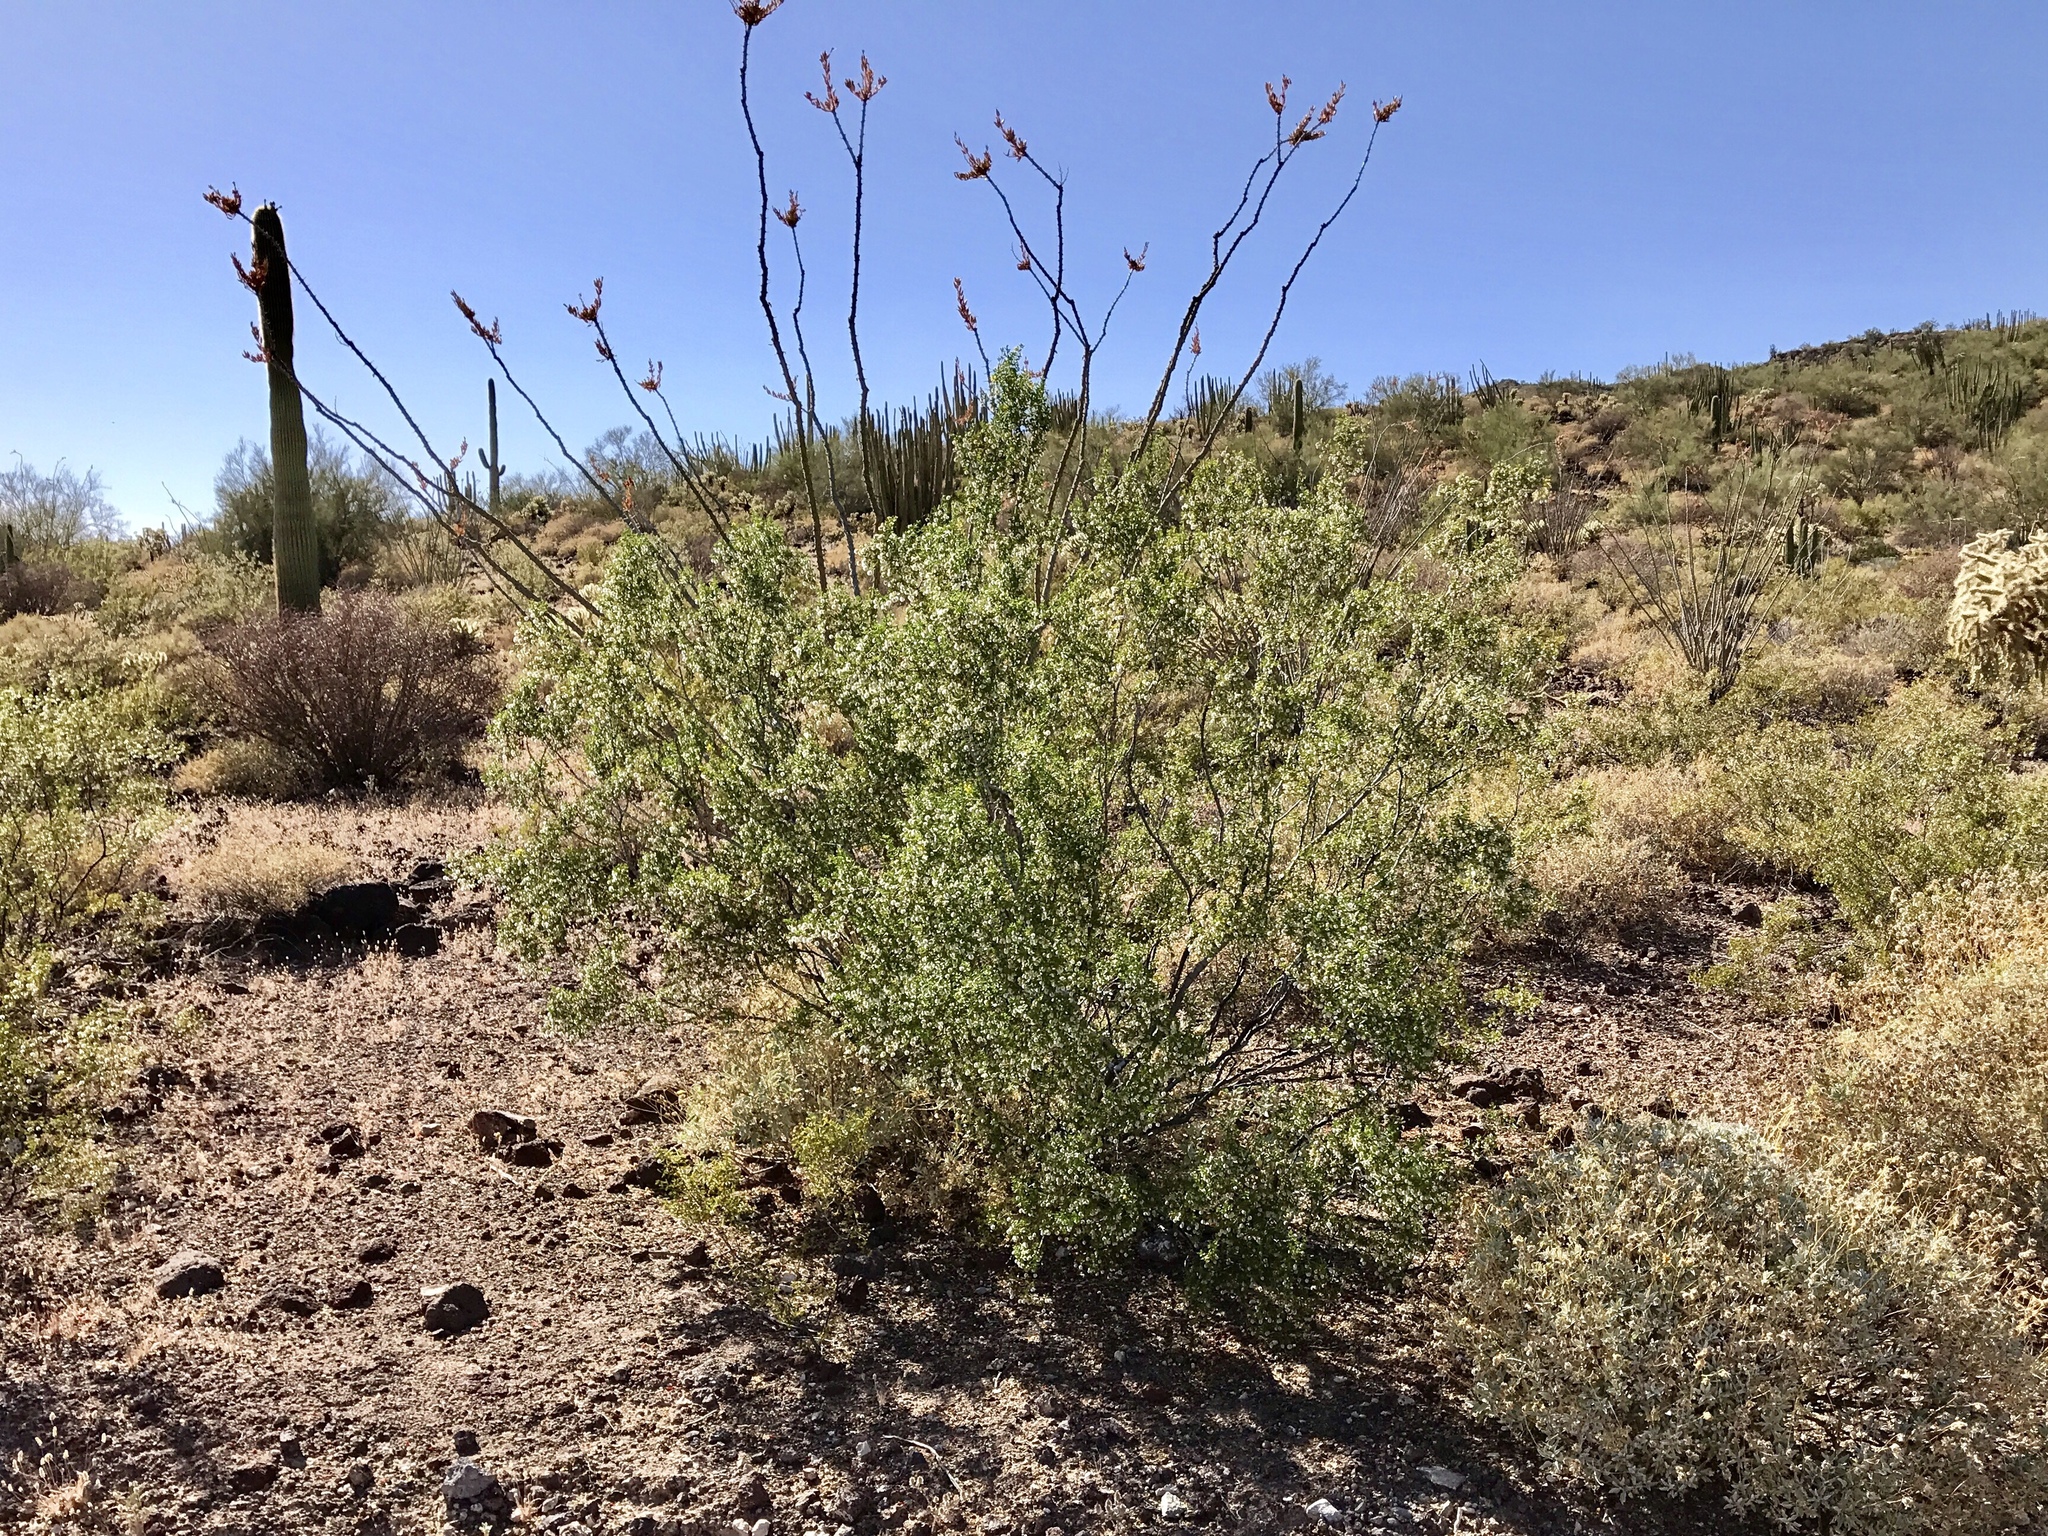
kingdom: Plantae
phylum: Tracheophyta
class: Magnoliopsida
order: Zygophyllales
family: Zygophyllaceae
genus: Larrea
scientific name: Larrea tridentata
